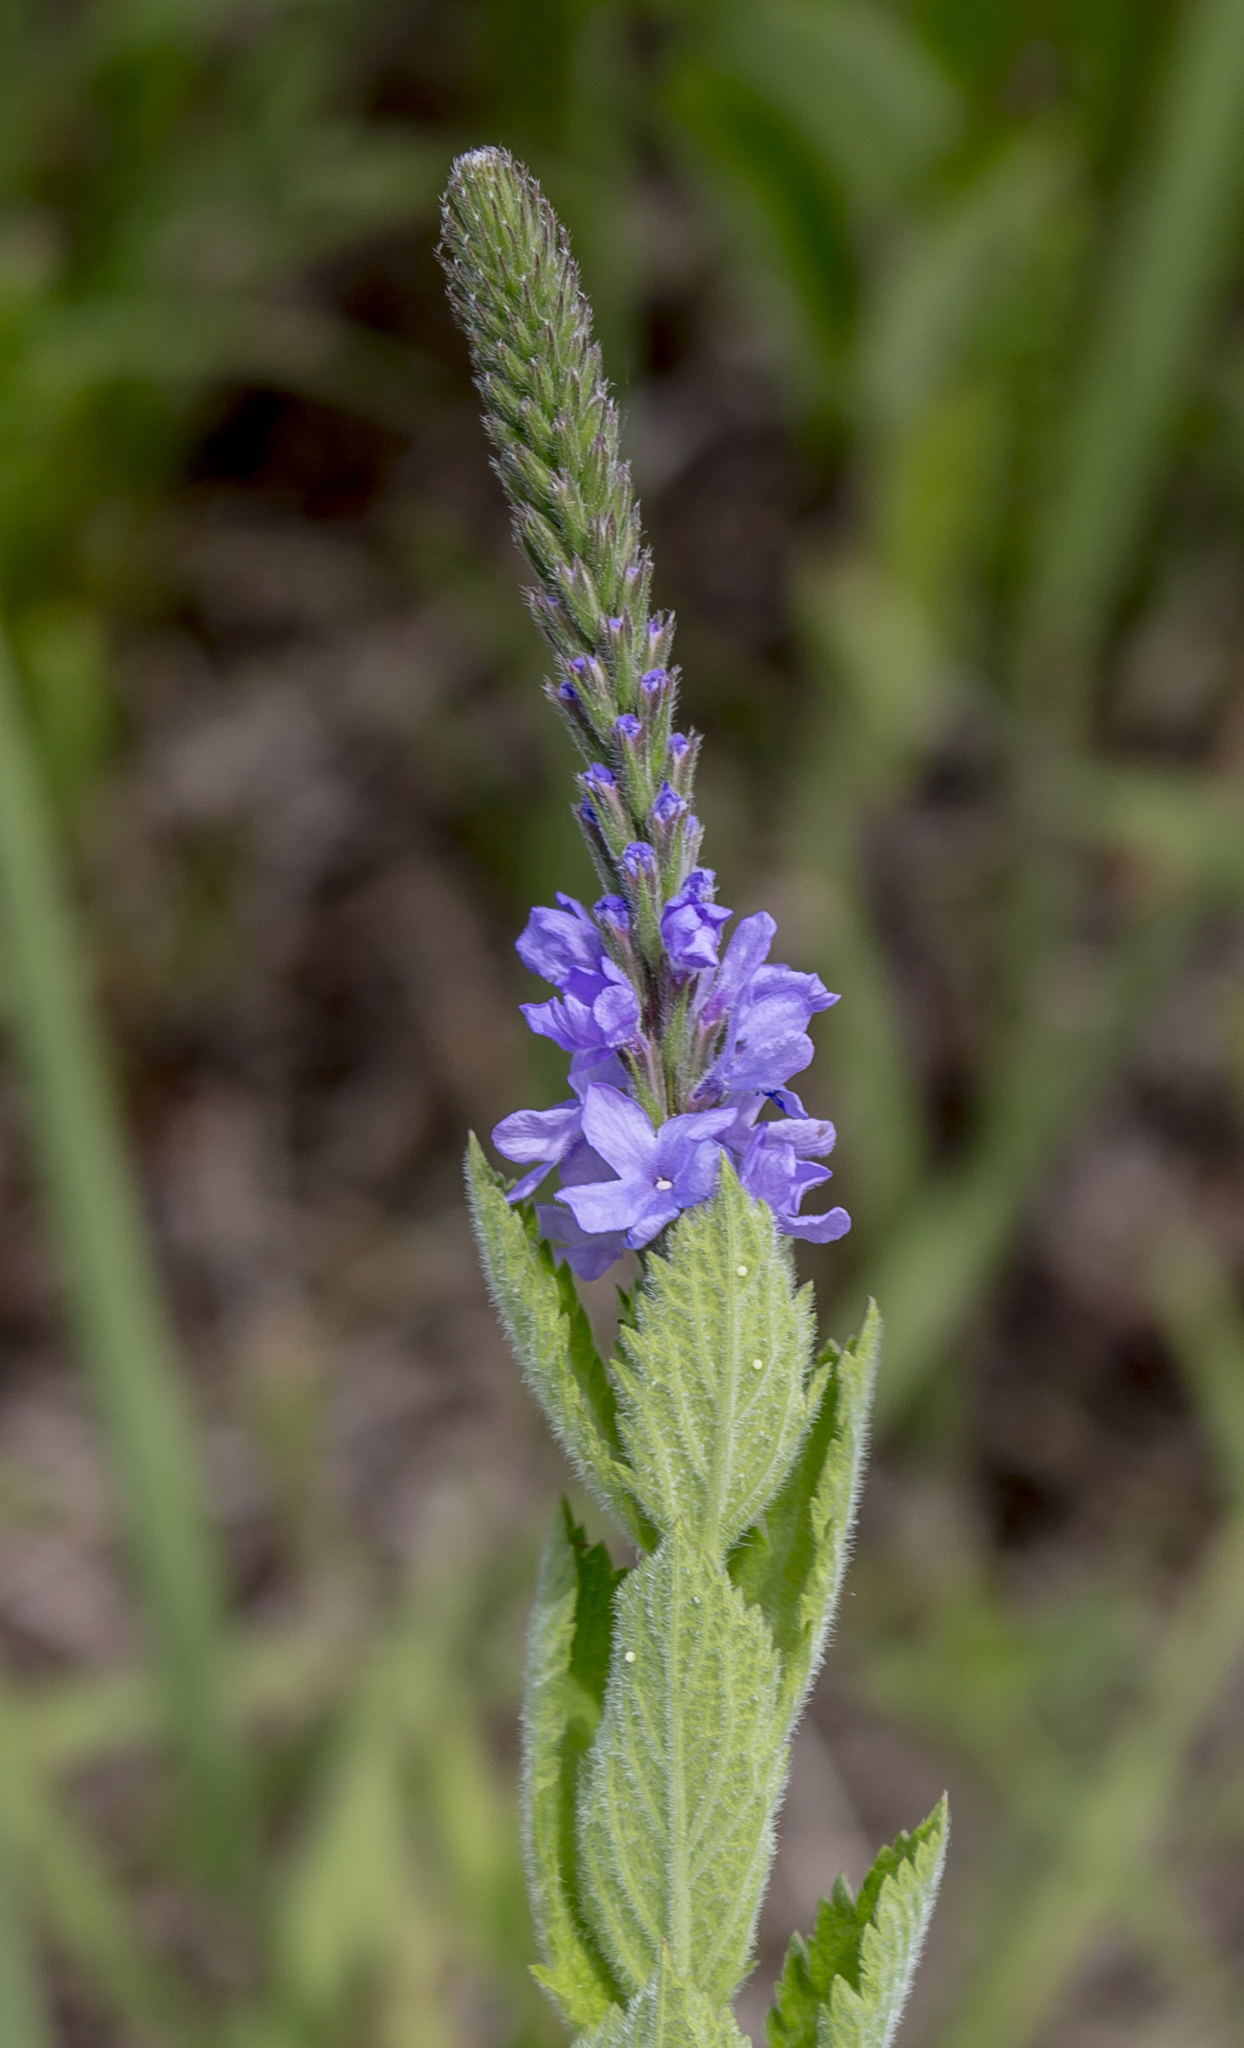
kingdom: Plantae
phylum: Tracheophyta
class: Magnoliopsida
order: Lamiales
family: Verbenaceae
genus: Verbena
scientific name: Verbena stricta
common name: Hoary vervain
